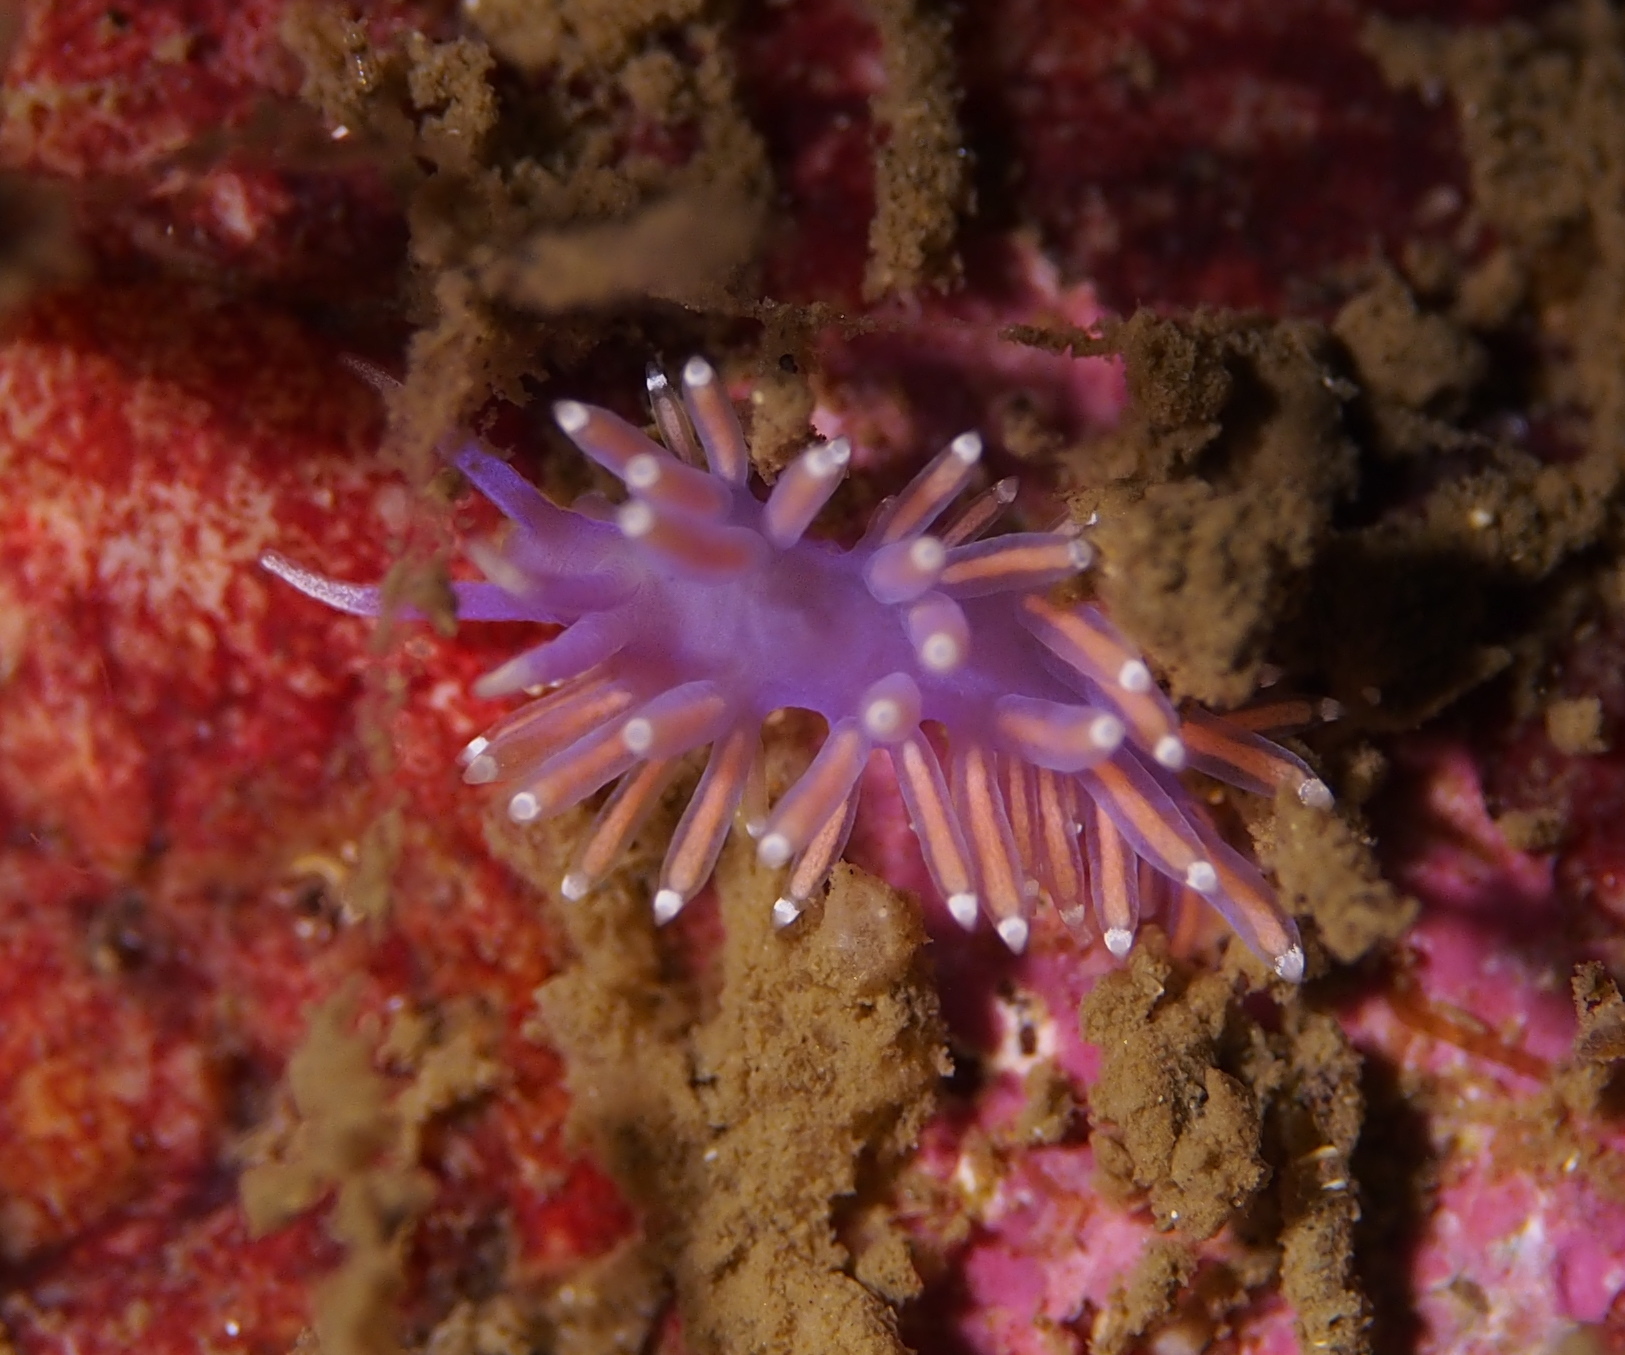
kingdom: Animalia
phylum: Mollusca
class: Gastropoda
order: Nudibranchia
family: Flabellinidae
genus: Edmundsella
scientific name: Edmundsella pedata
